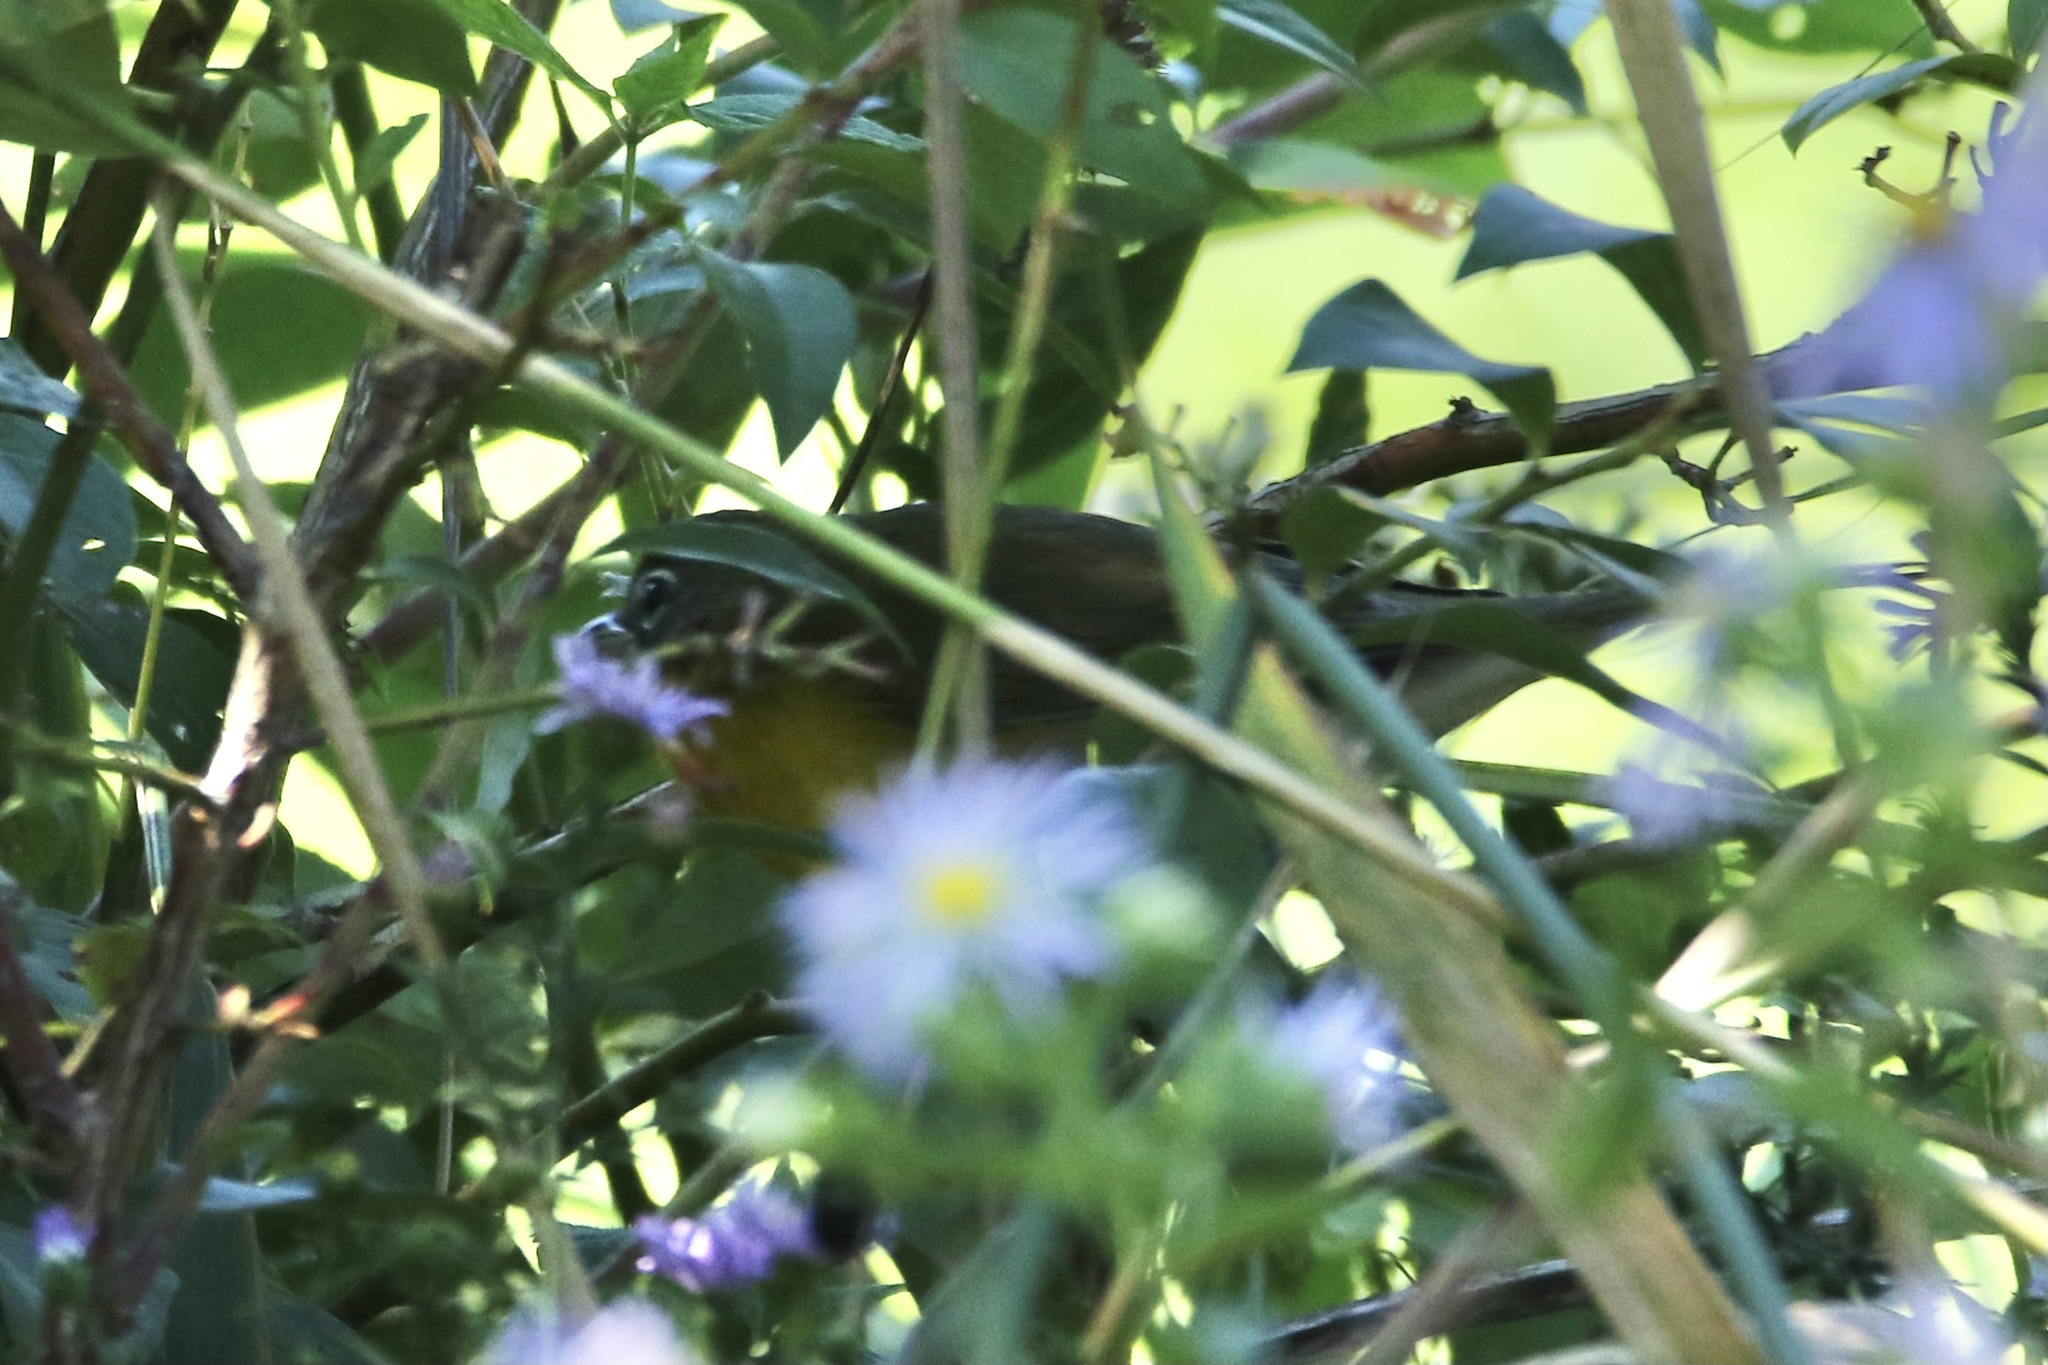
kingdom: Animalia
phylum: Chordata
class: Aves
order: Passeriformes
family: Parulidae
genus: Icteria
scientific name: Icteria virens
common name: Yellow-breasted chat
